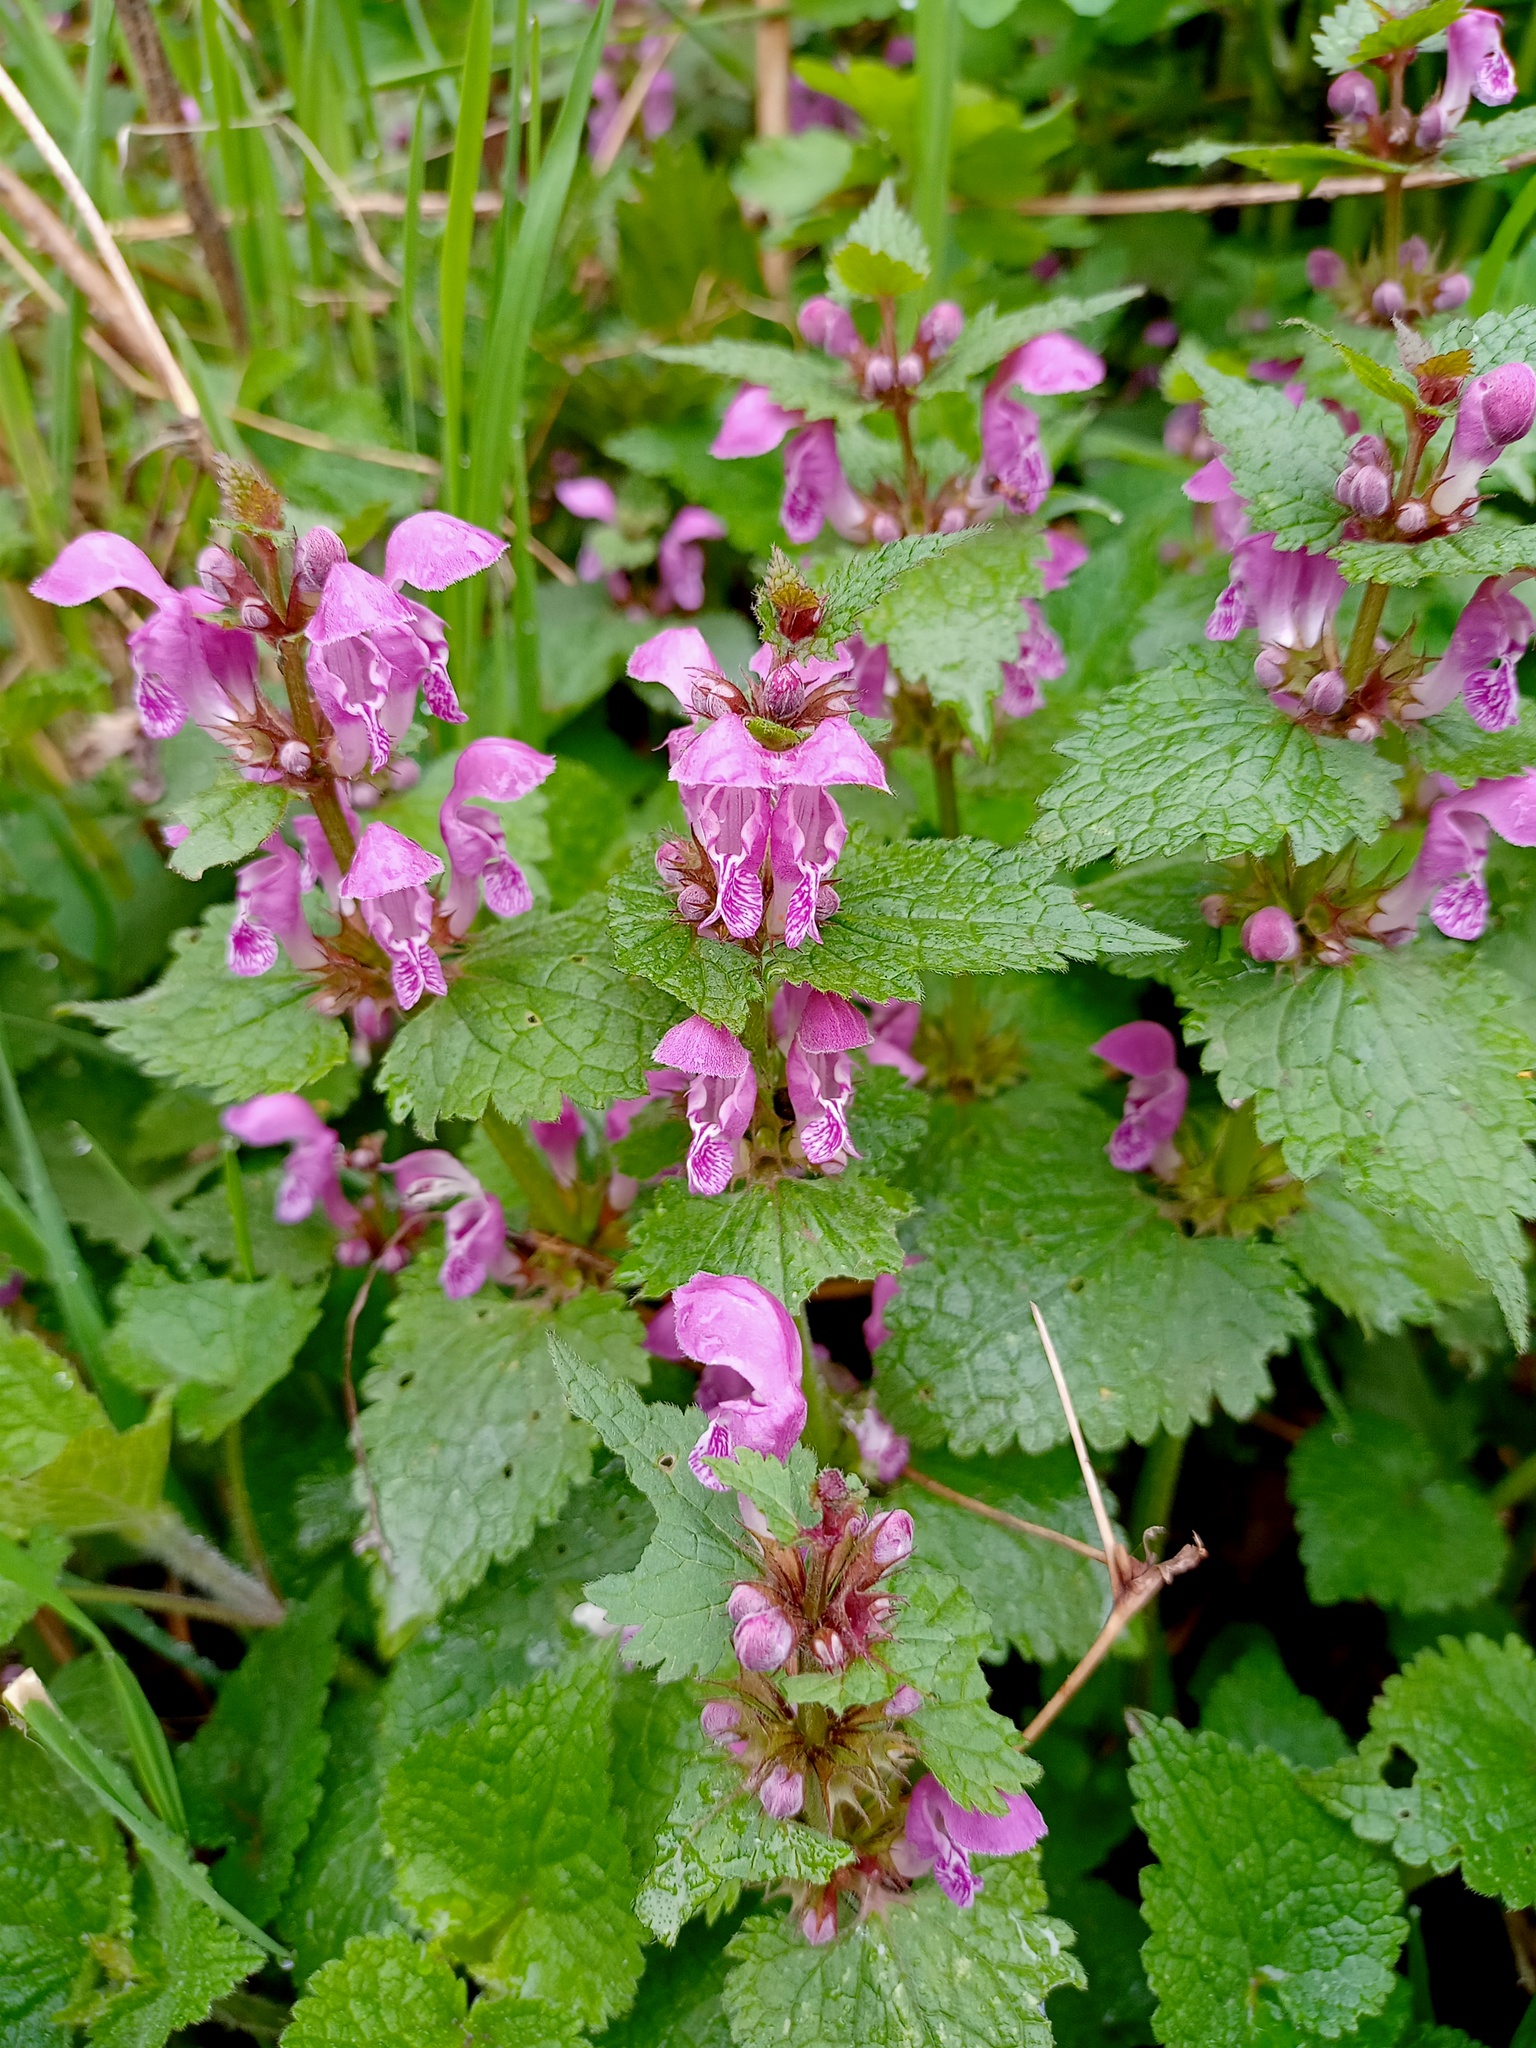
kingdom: Plantae
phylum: Tracheophyta
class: Magnoliopsida
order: Lamiales
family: Lamiaceae
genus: Lamium
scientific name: Lamium maculatum
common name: Spotted dead-nettle
